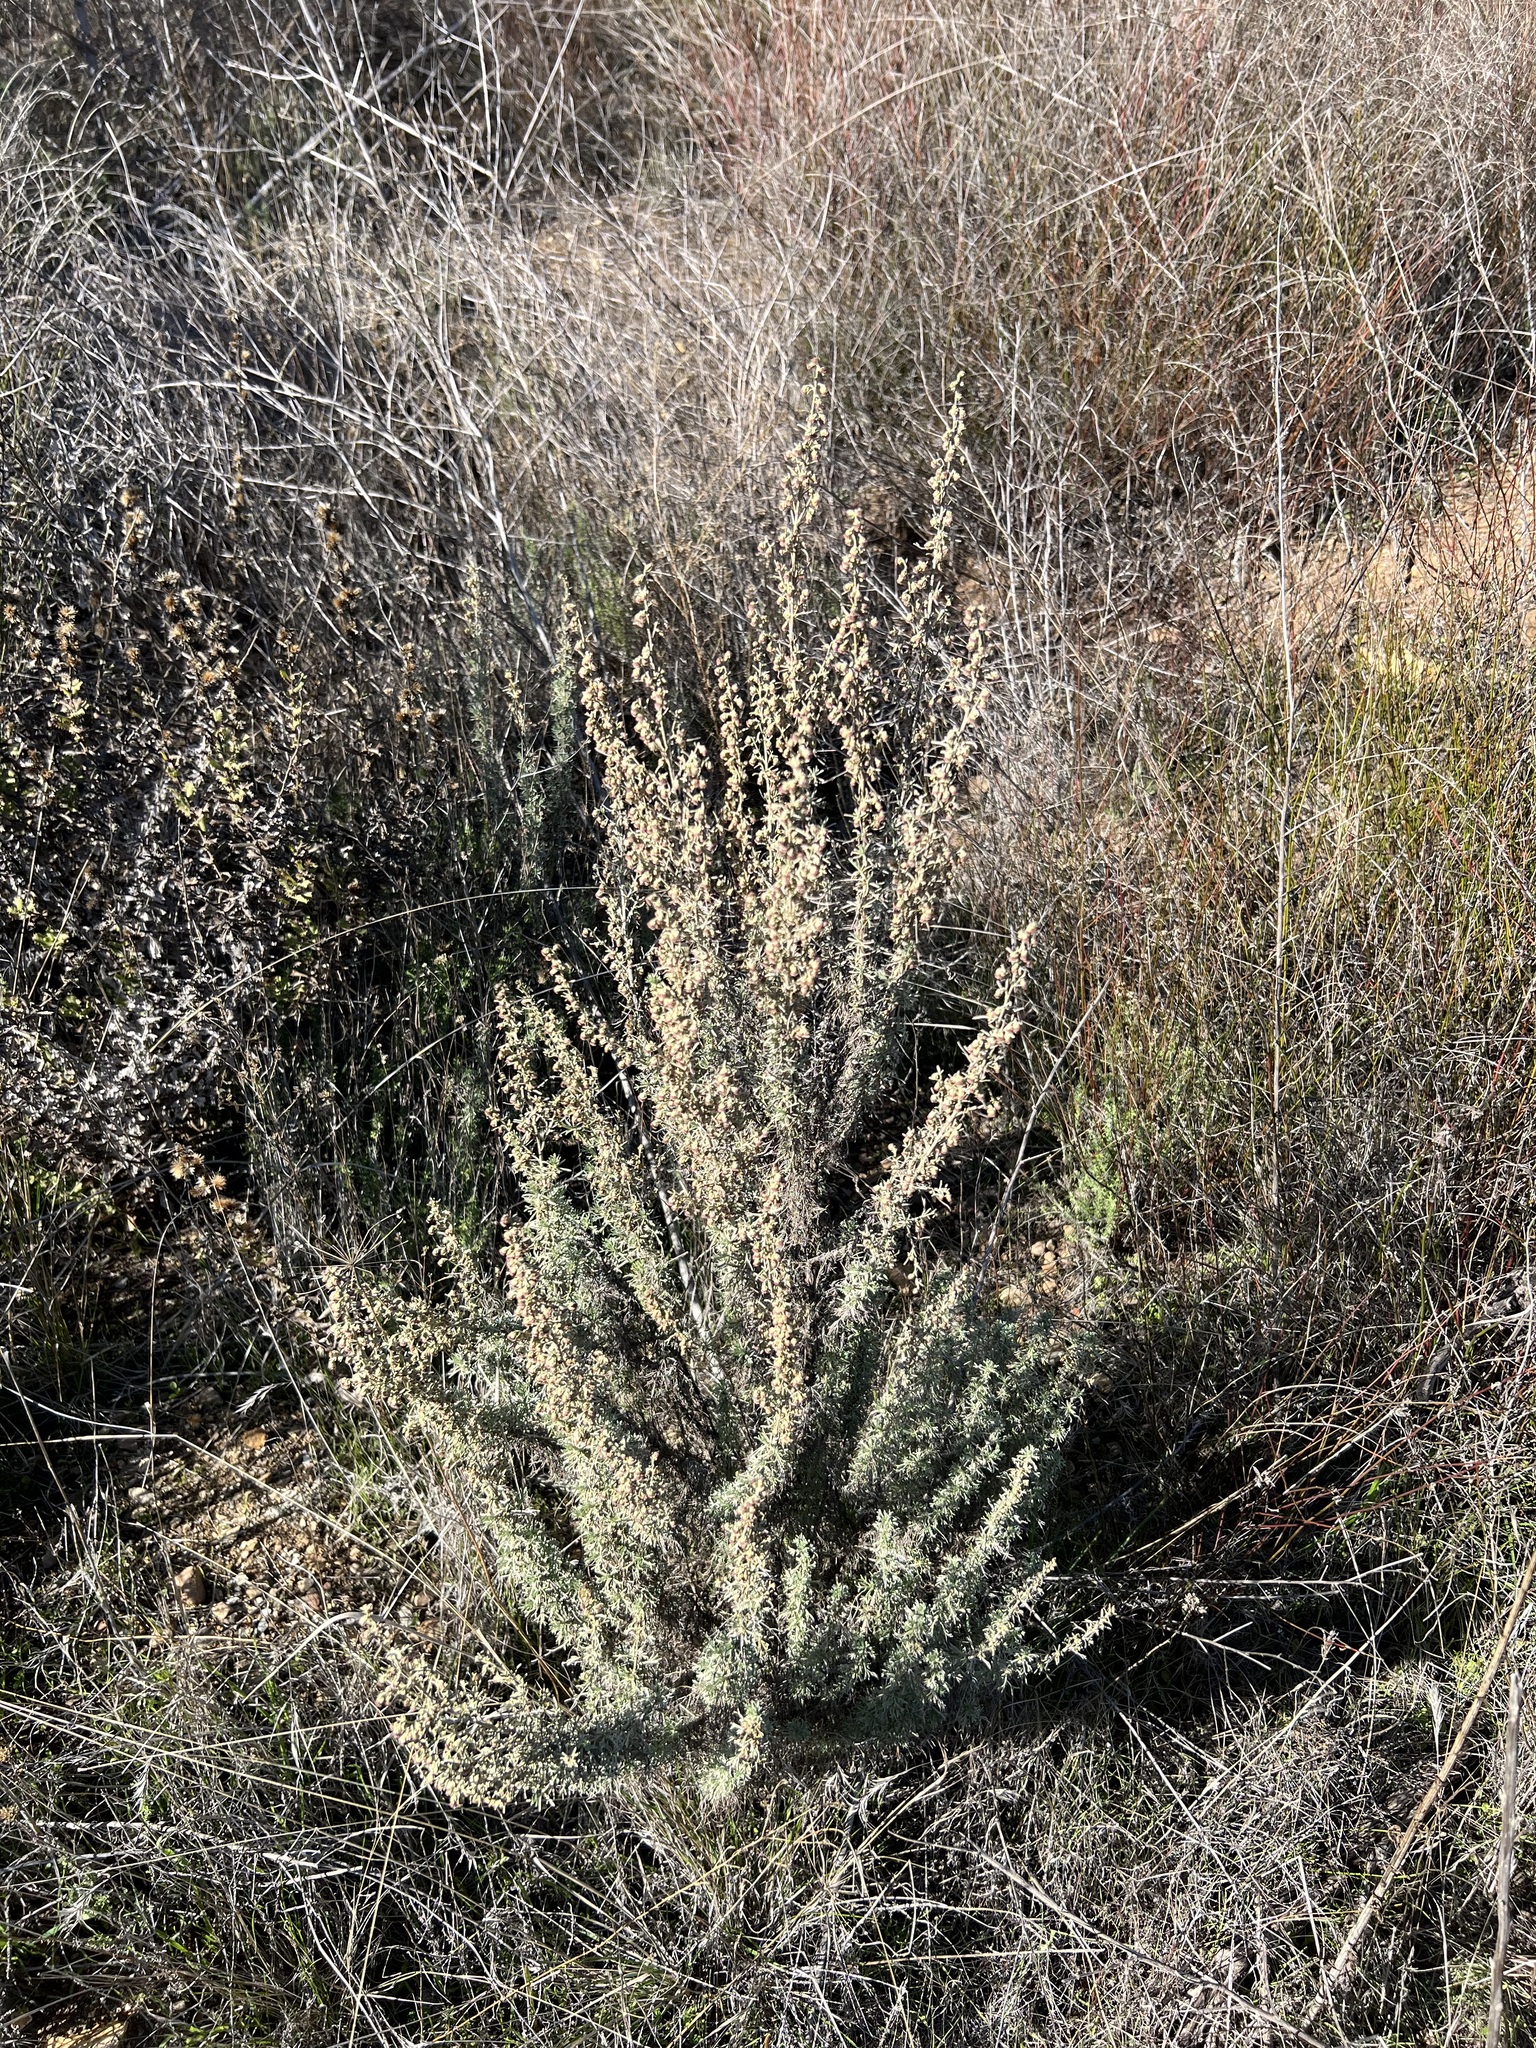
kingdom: Plantae
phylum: Tracheophyta
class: Magnoliopsida
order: Asterales
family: Asteraceae
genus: Artemisia
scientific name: Artemisia californica
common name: California sagebrush
